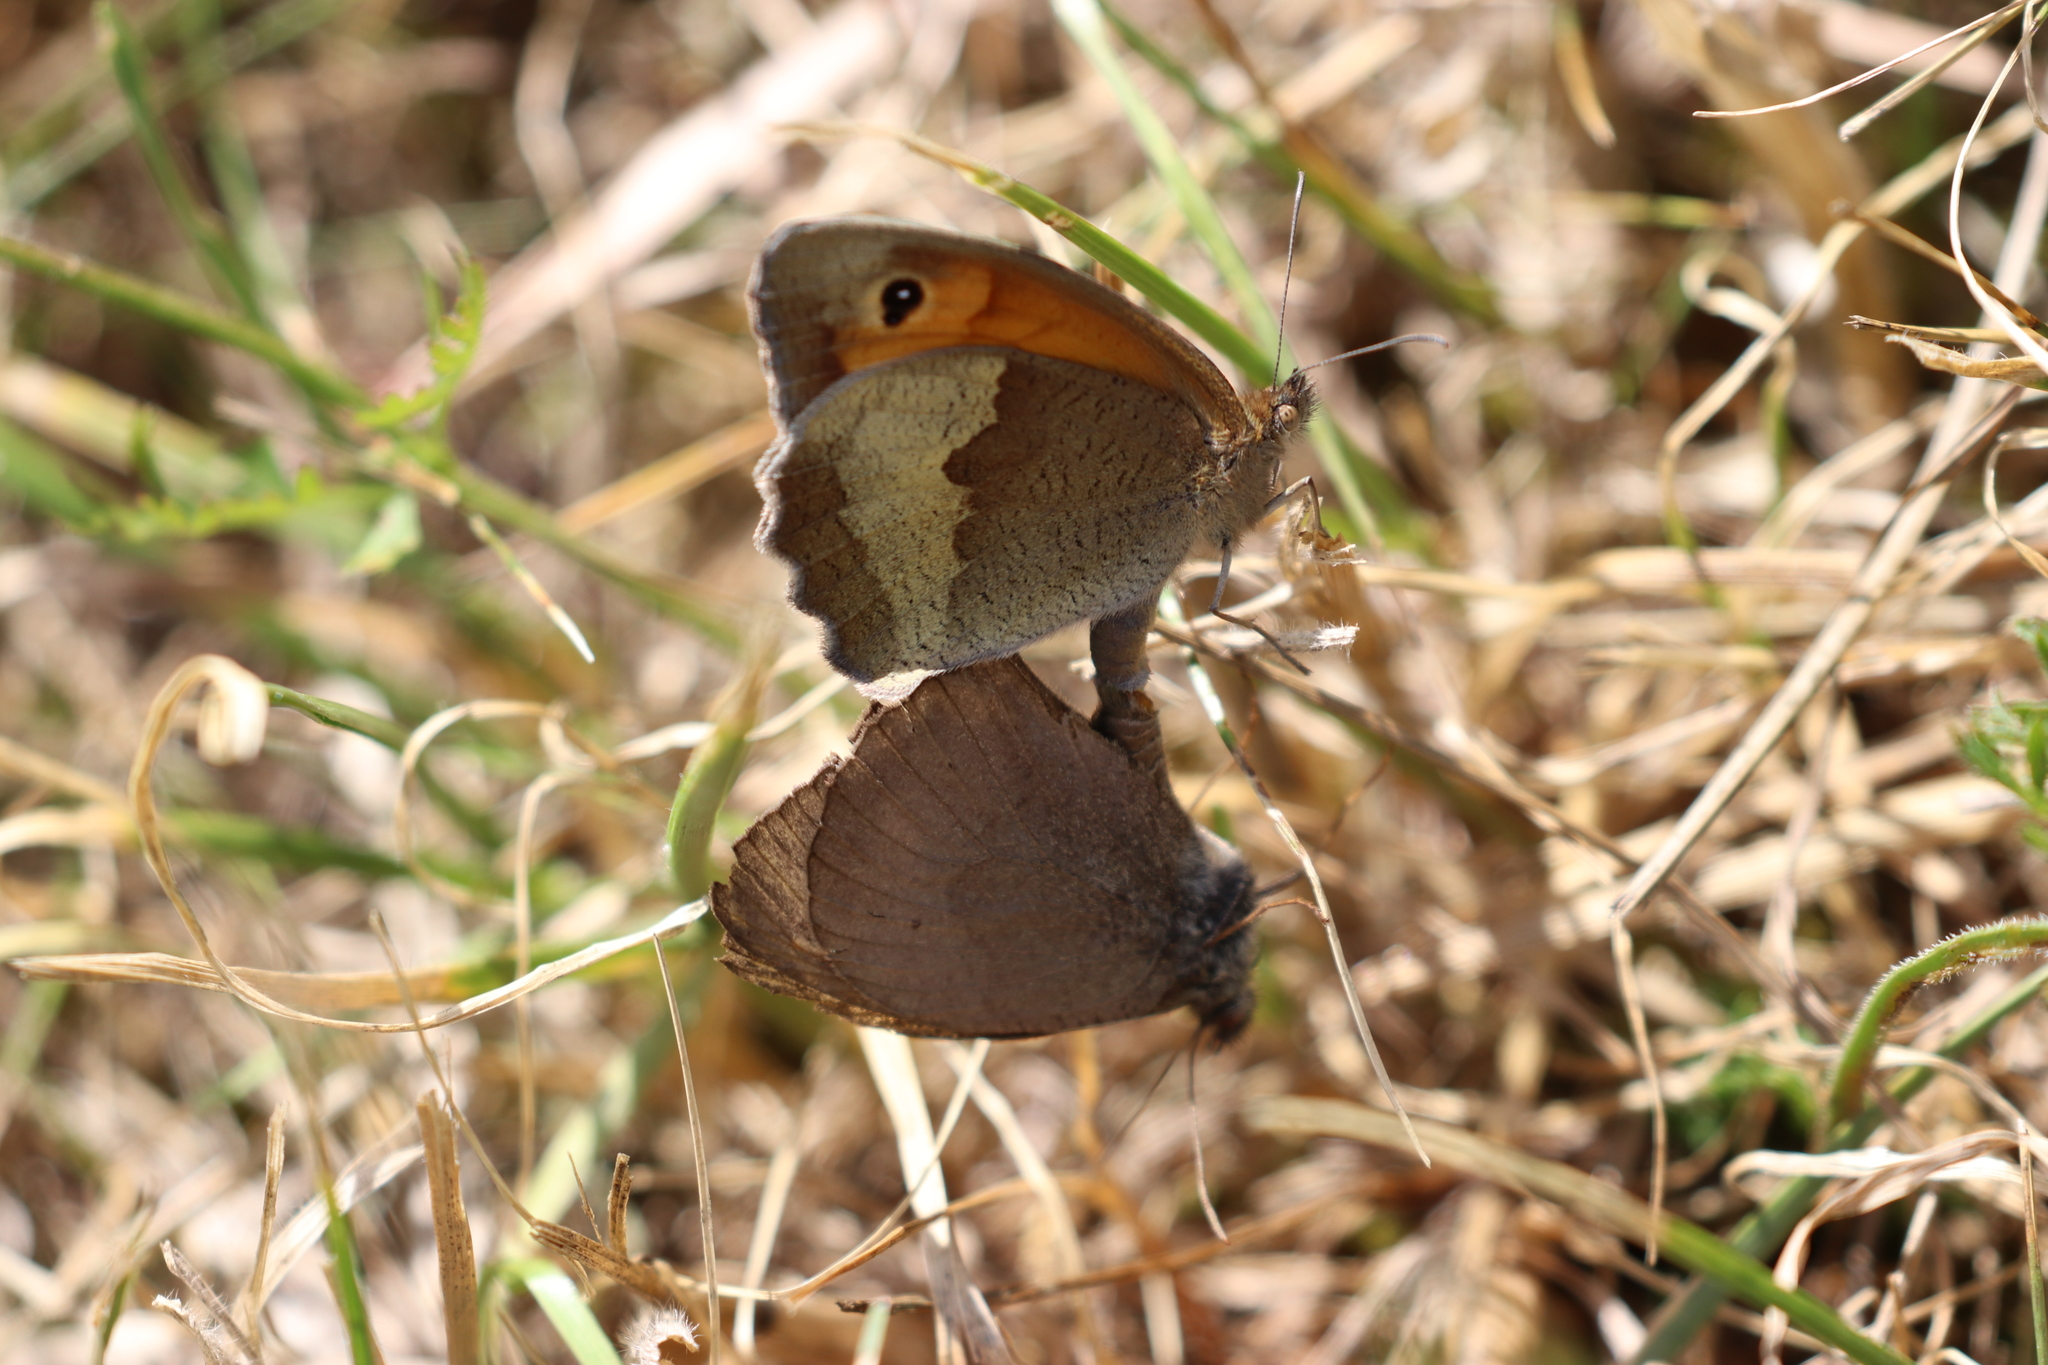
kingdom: Animalia
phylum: Arthropoda
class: Insecta
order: Lepidoptera
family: Nymphalidae
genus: Maniola
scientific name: Maniola jurtina
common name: Meadow brown
